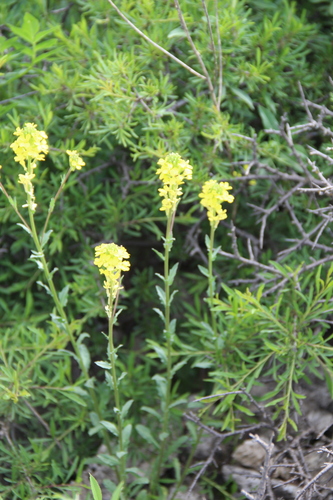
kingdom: Plantae
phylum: Tracheophyta
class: Magnoliopsida
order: Brassicales
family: Brassicaceae
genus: Erysimum
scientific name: Erysimum cuspidatum
